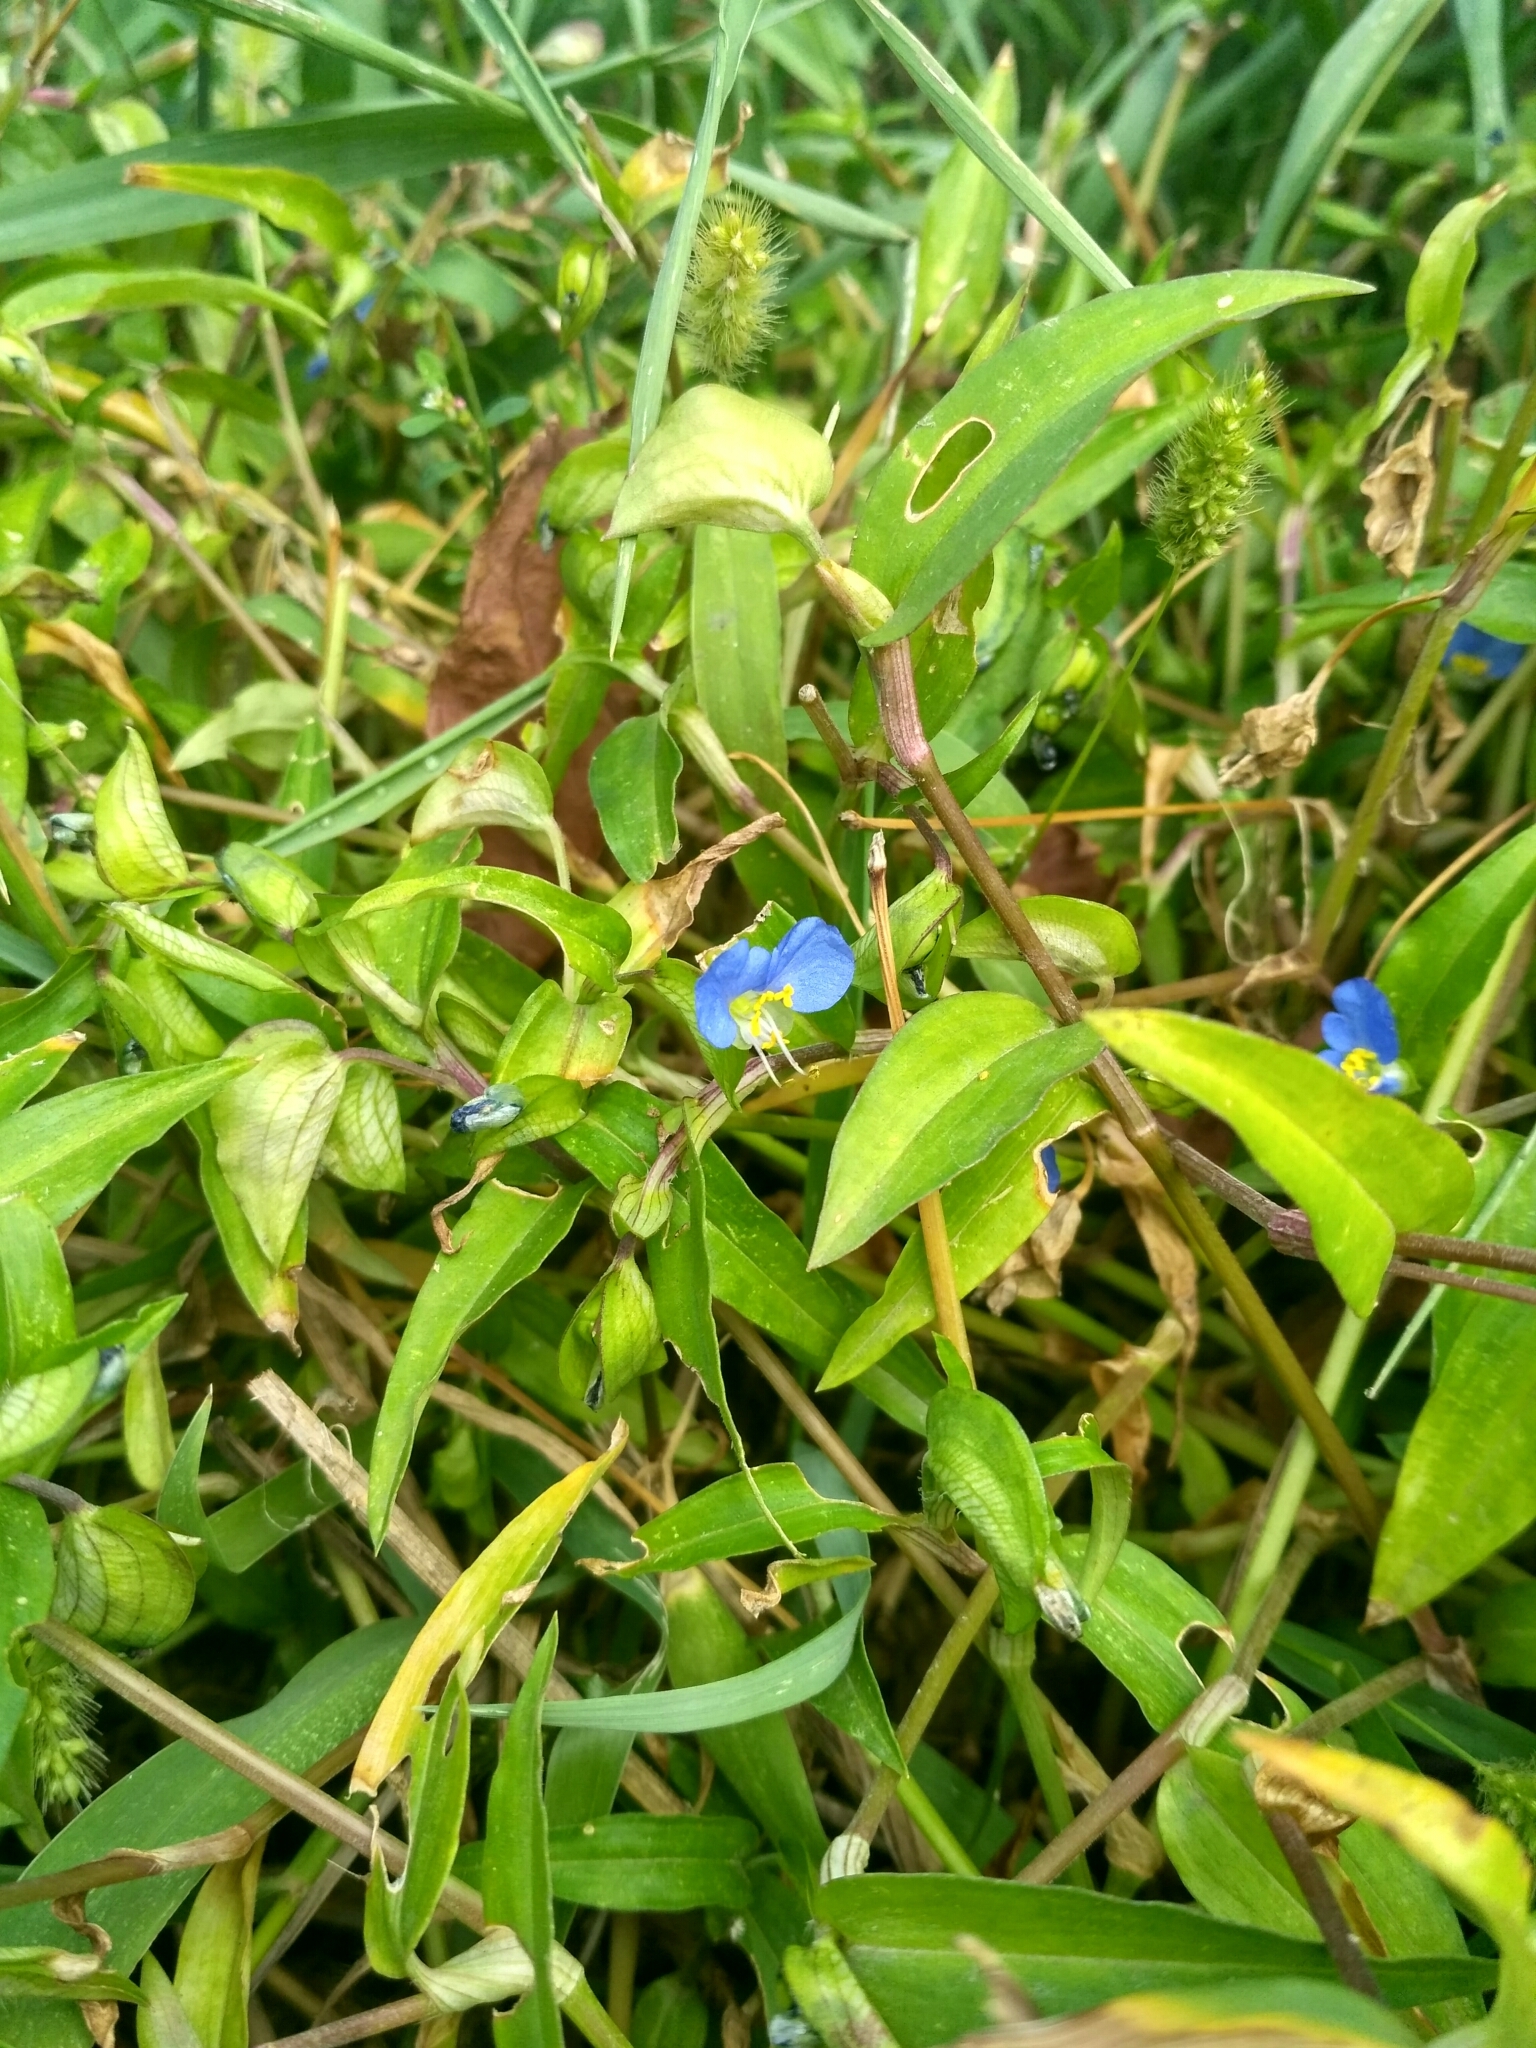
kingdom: Plantae
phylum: Tracheophyta
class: Liliopsida
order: Commelinales
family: Commelinaceae
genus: Commelina
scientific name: Commelina communis
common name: Asiatic dayflower
